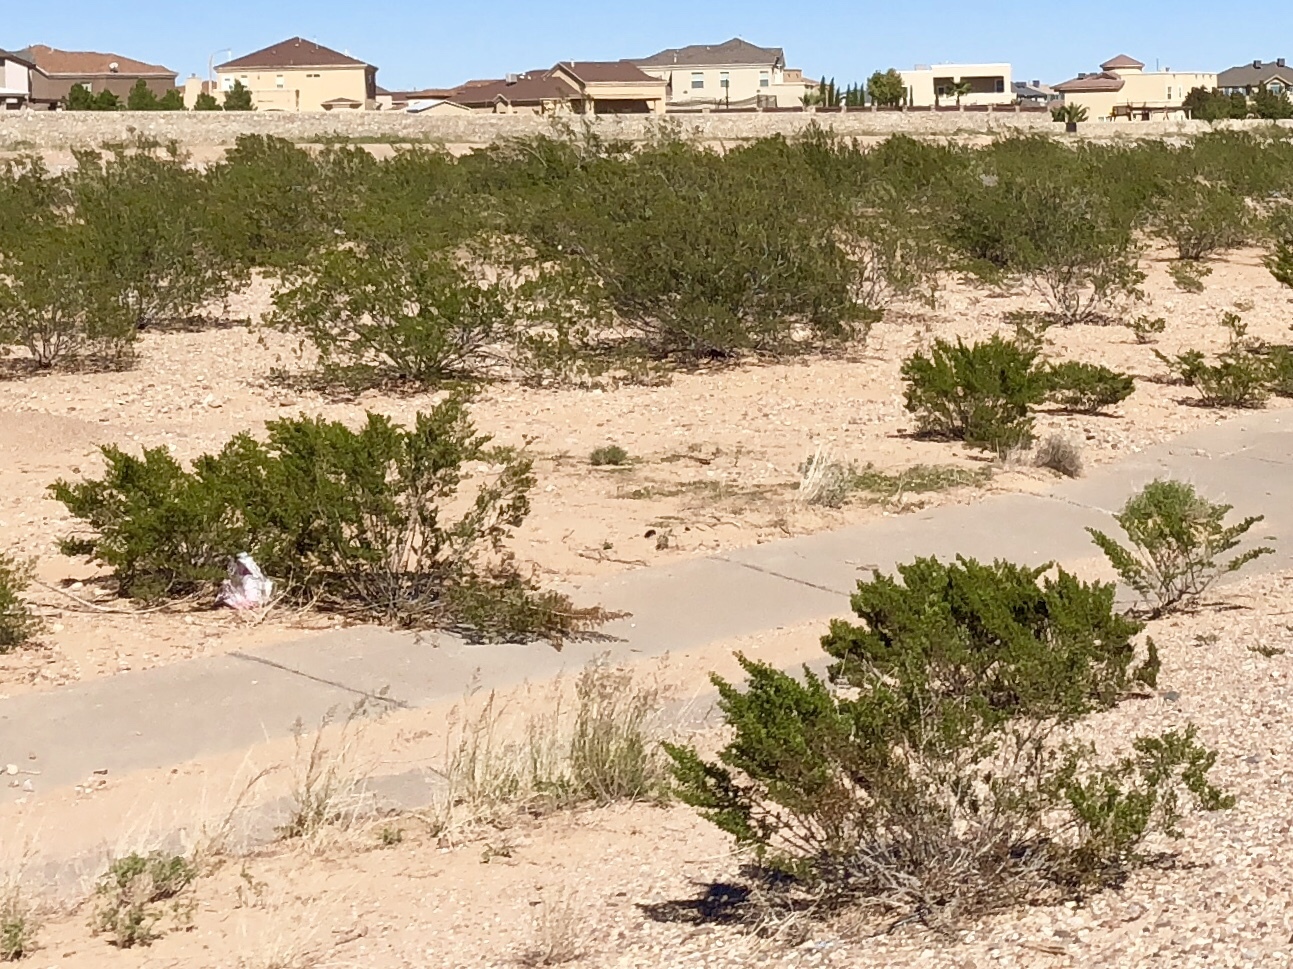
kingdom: Plantae
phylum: Tracheophyta
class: Magnoliopsida
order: Zygophyllales
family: Zygophyllaceae
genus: Larrea
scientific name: Larrea tridentata
